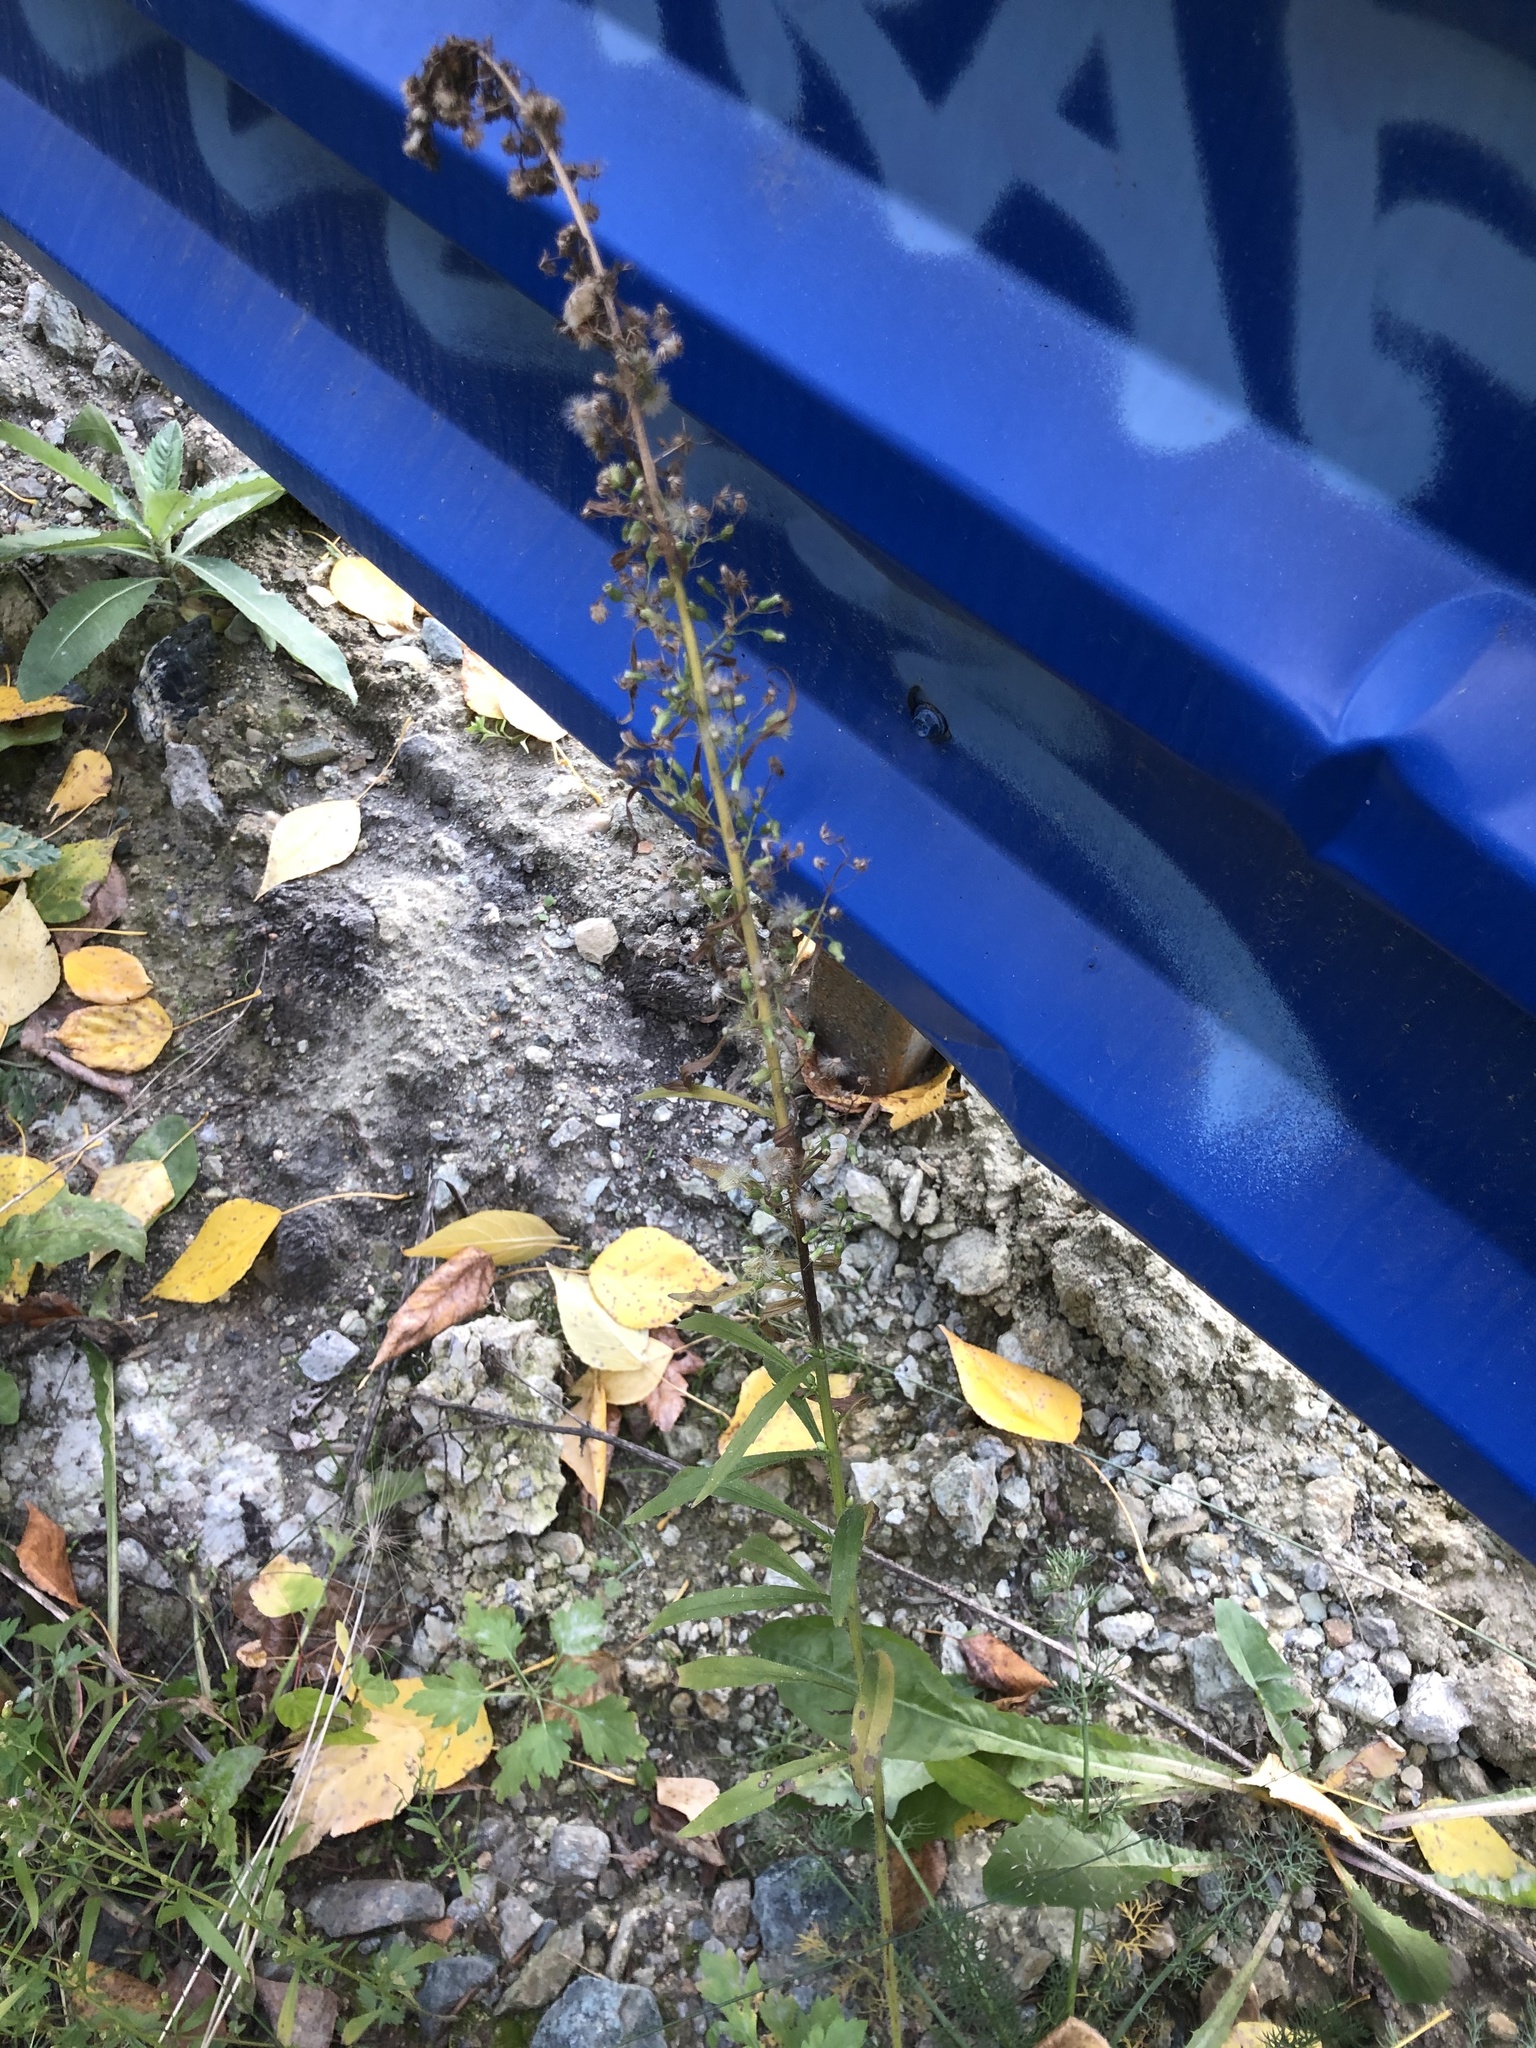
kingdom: Plantae
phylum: Tracheophyta
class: Magnoliopsida
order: Asterales
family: Asteraceae
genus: Erigeron
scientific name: Erigeron canadensis
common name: Canadian fleabane
